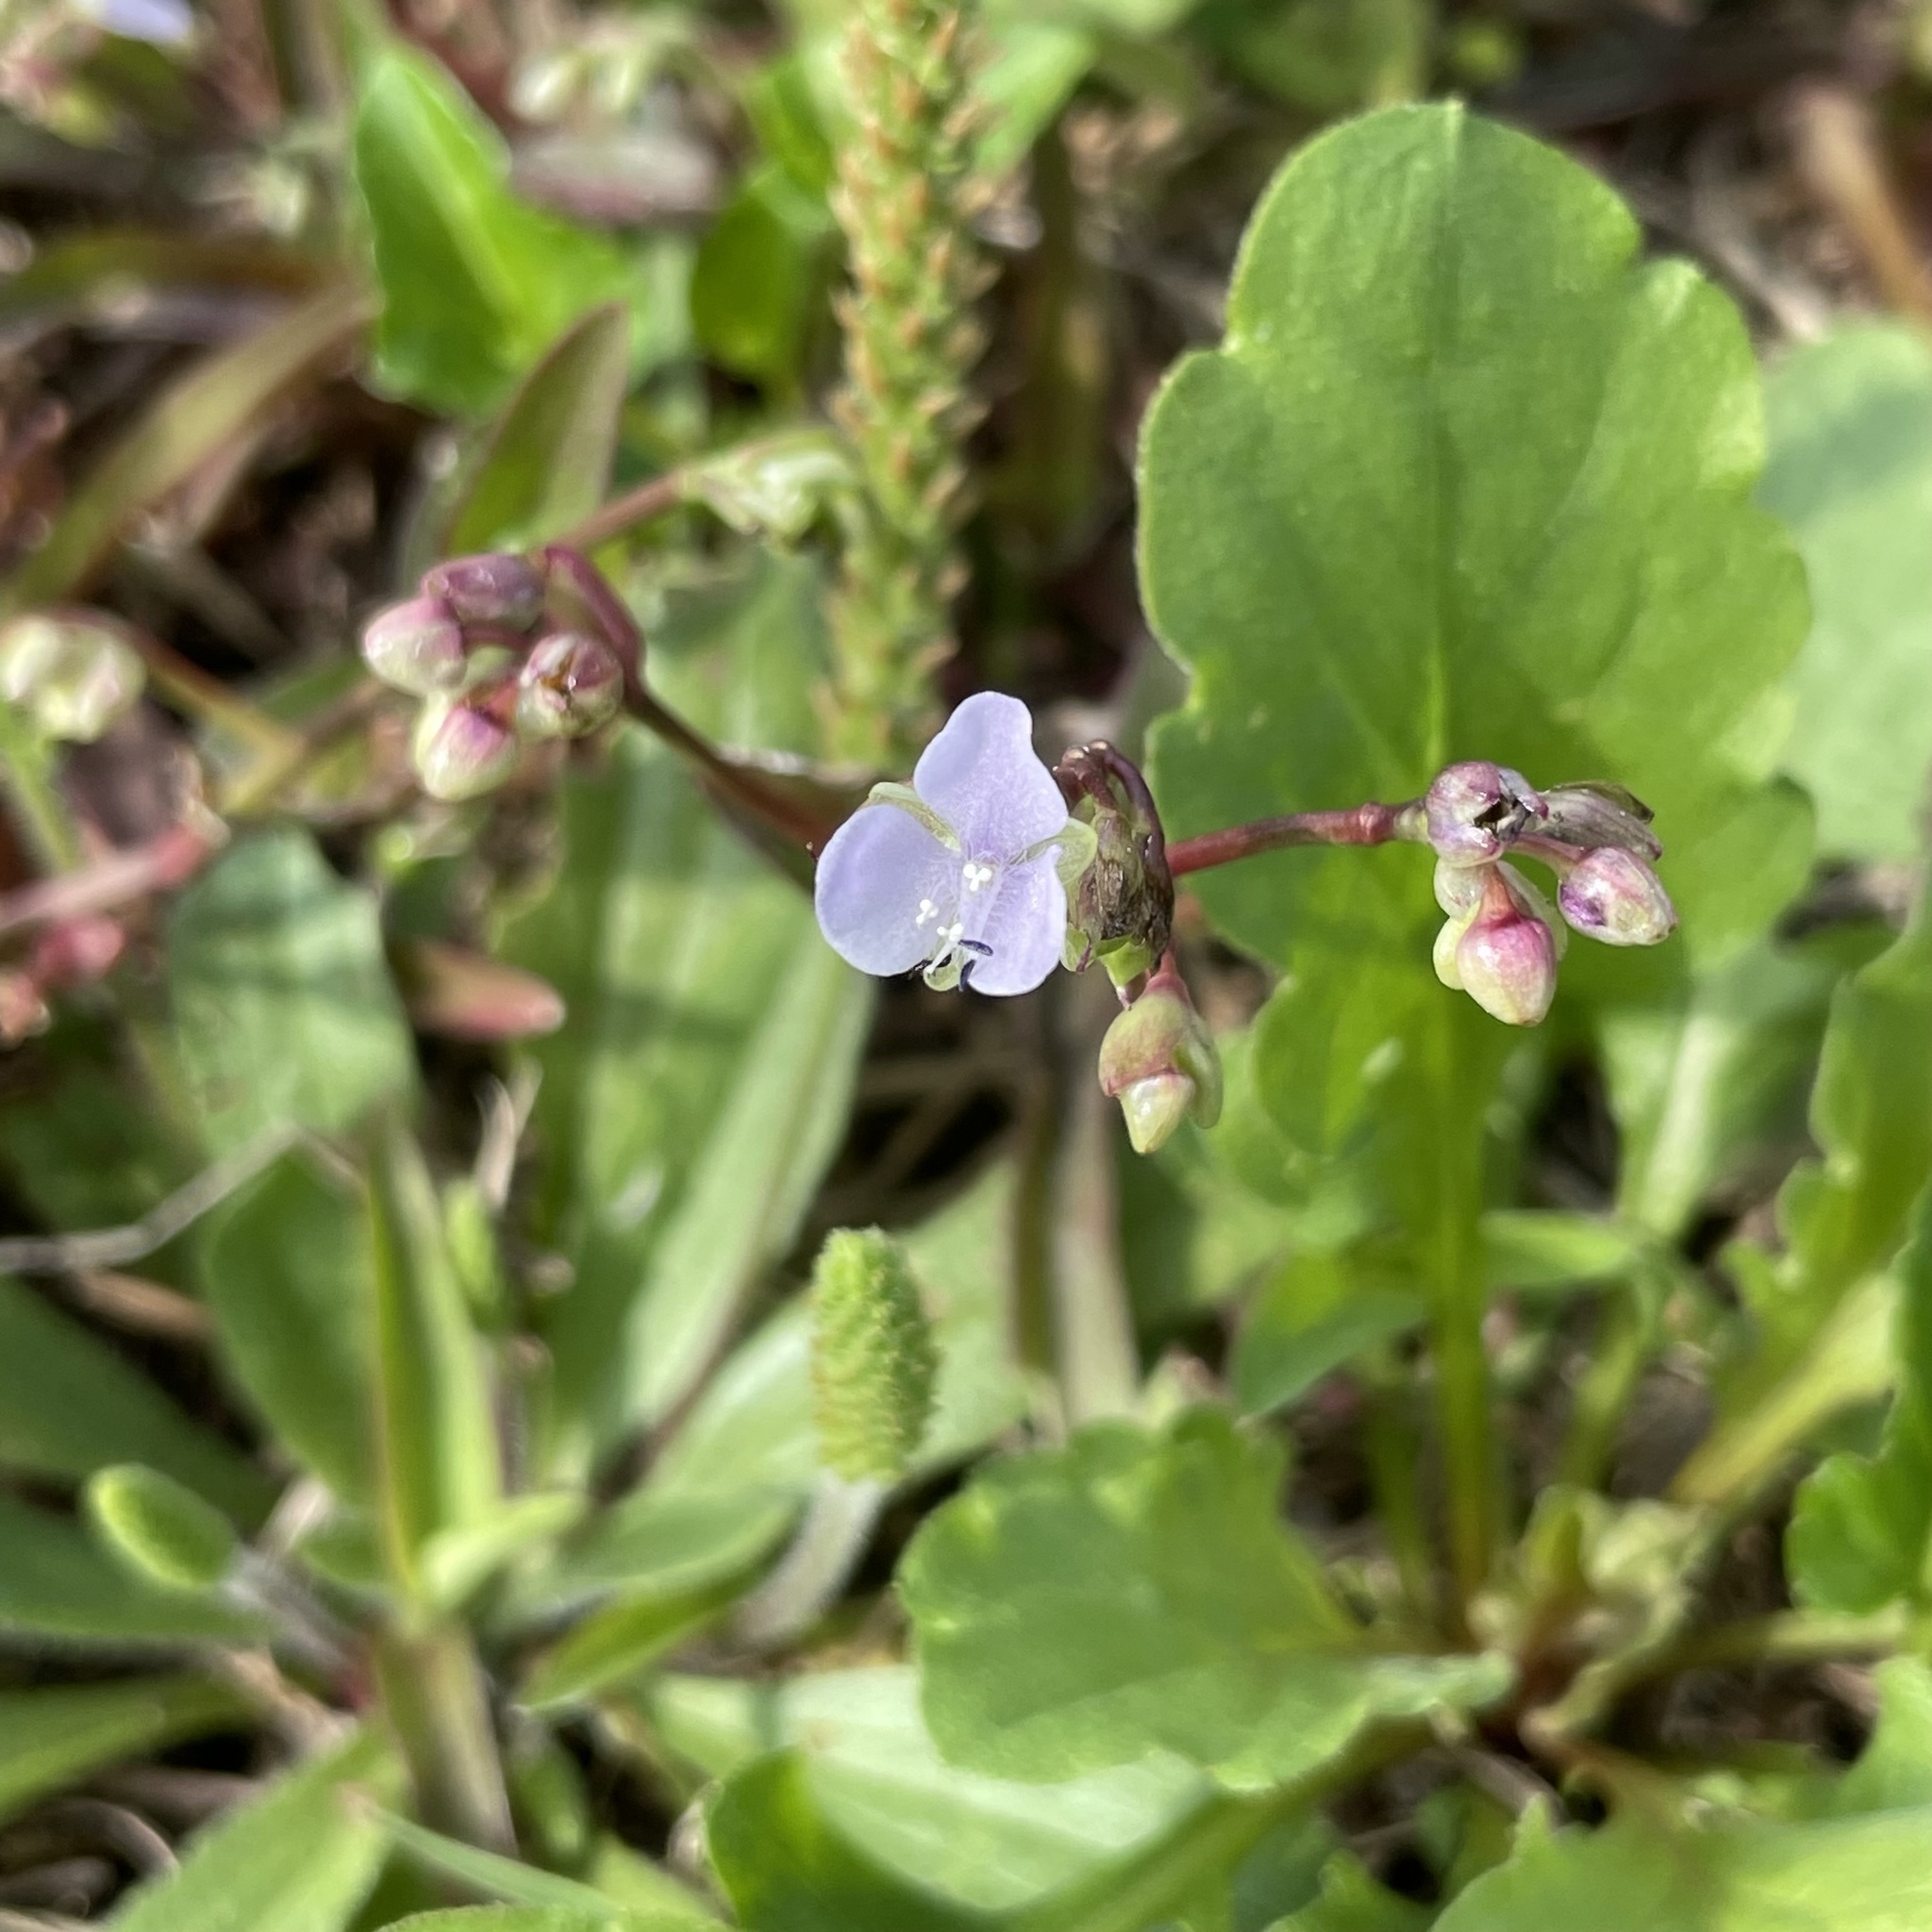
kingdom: Plantae
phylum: Tracheophyta
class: Liliopsida
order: Commelinales
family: Commelinaceae
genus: Murdannia
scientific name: Murdannia loriformis
